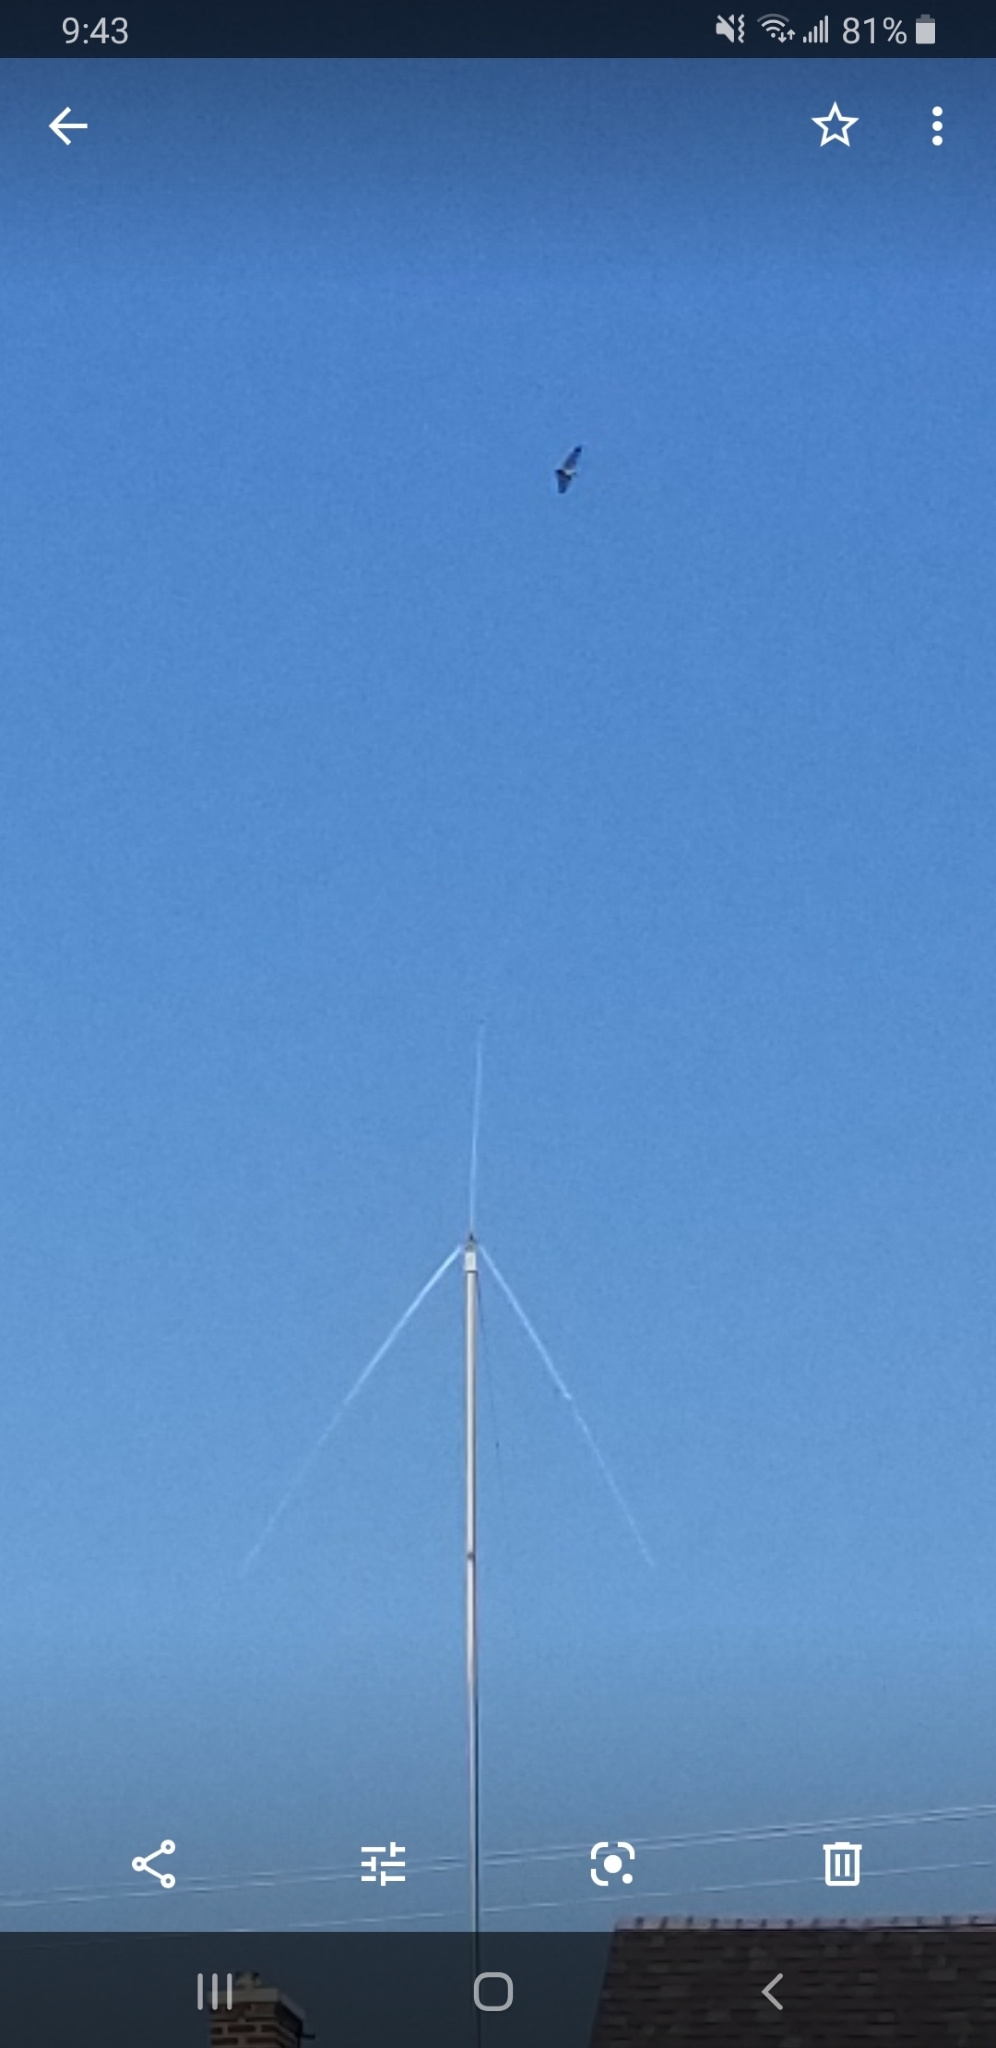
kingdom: Animalia
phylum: Chordata
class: Aves
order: Accipitriformes
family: Accipitridae
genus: Buteo
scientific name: Buteo
